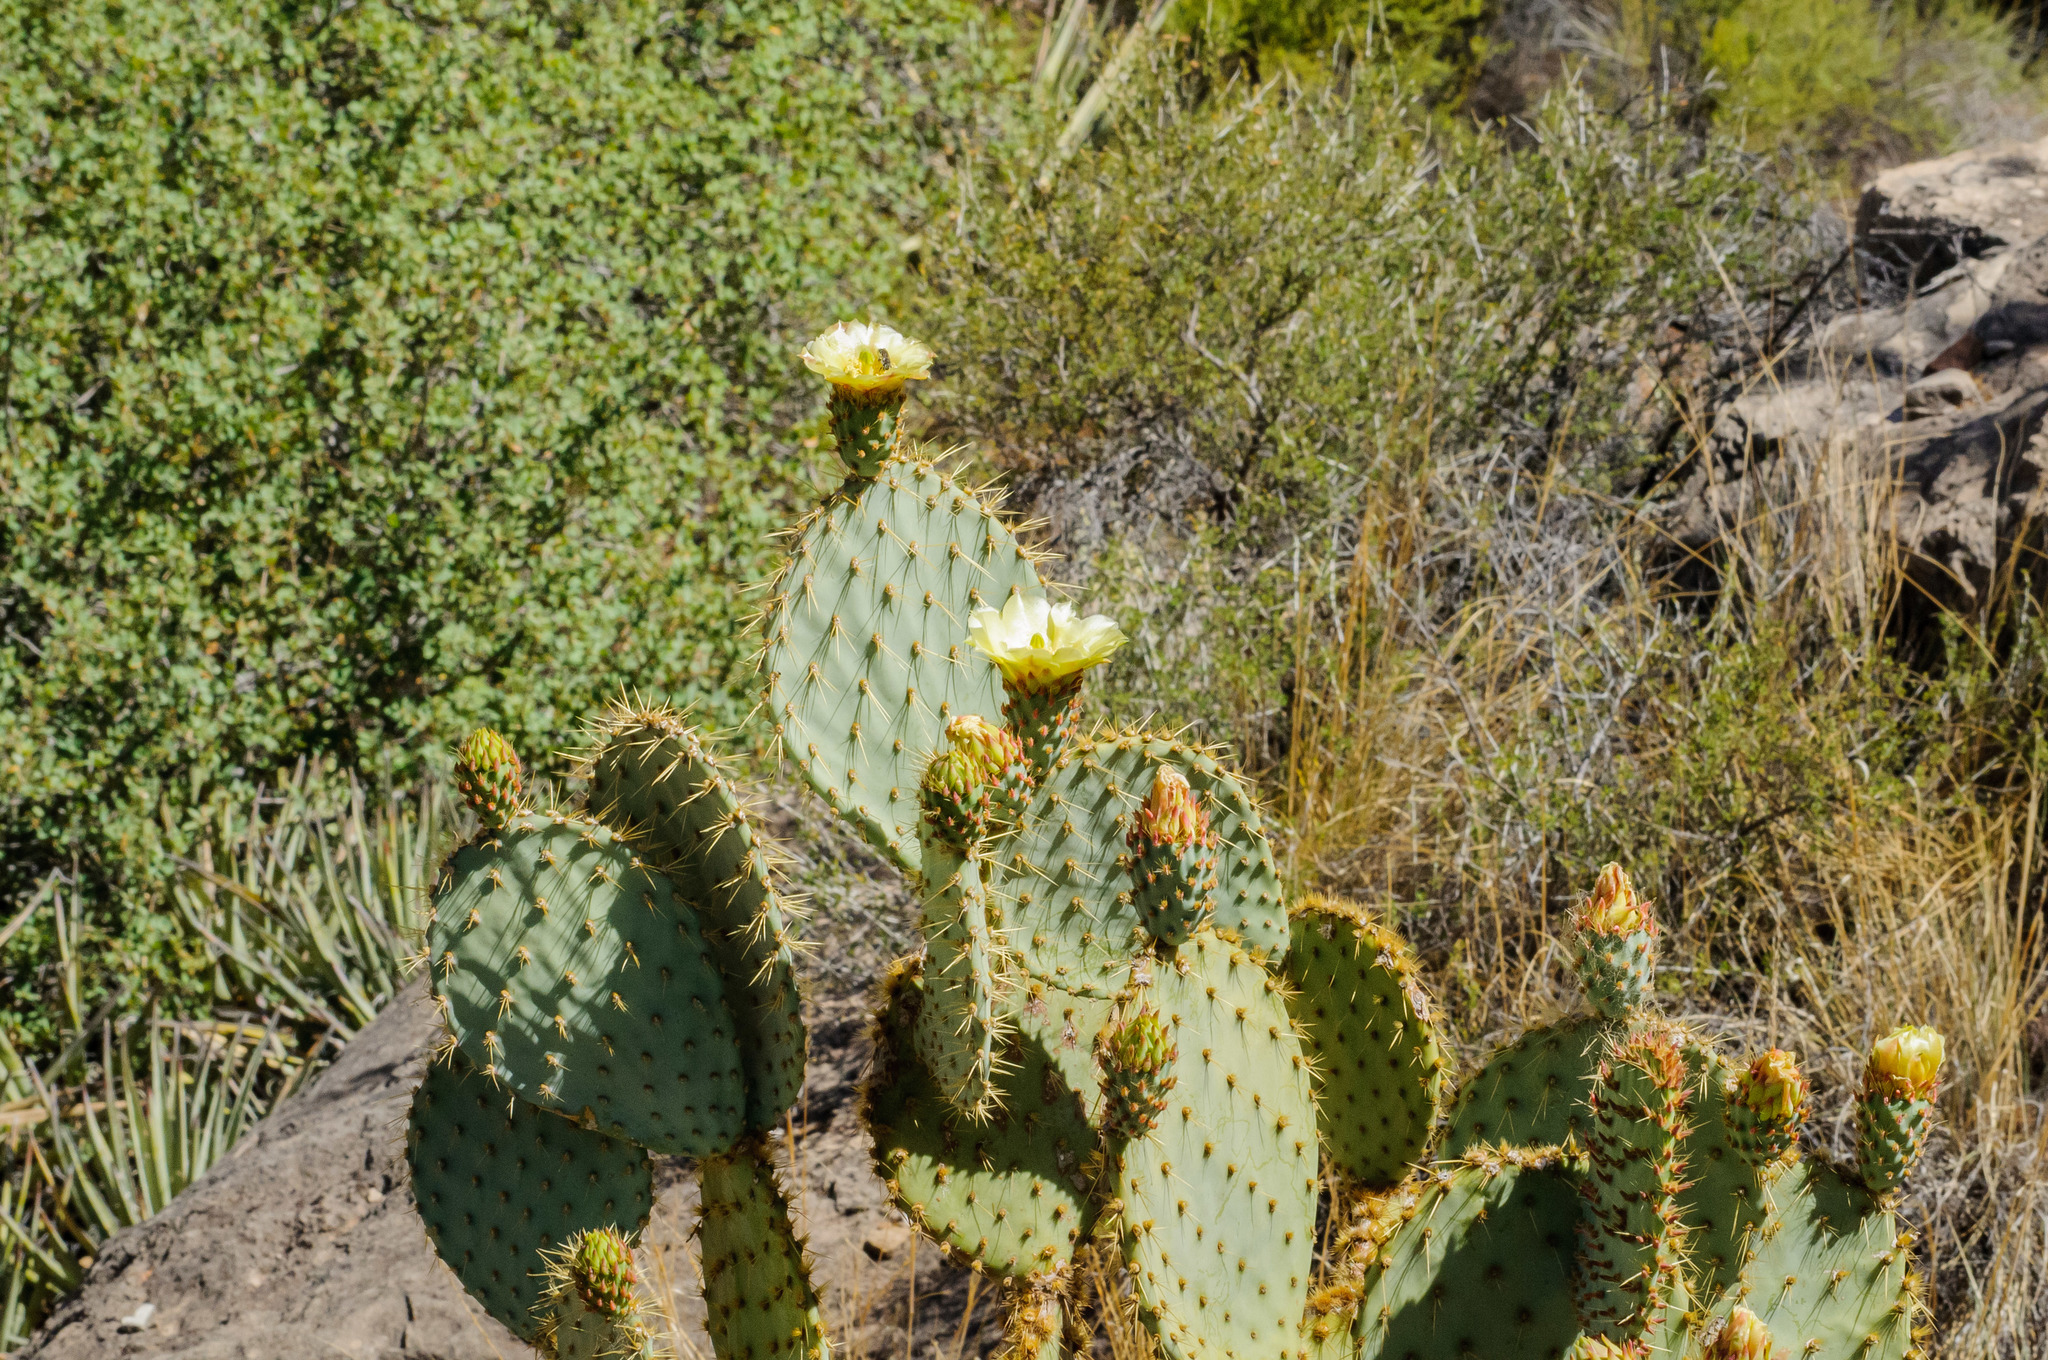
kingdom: Plantae
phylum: Tracheophyta
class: Magnoliopsida
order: Caryophyllales
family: Cactaceae
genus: Opuntia
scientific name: Opuntia chlorotica
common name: Dollar-joint prickly-pear
